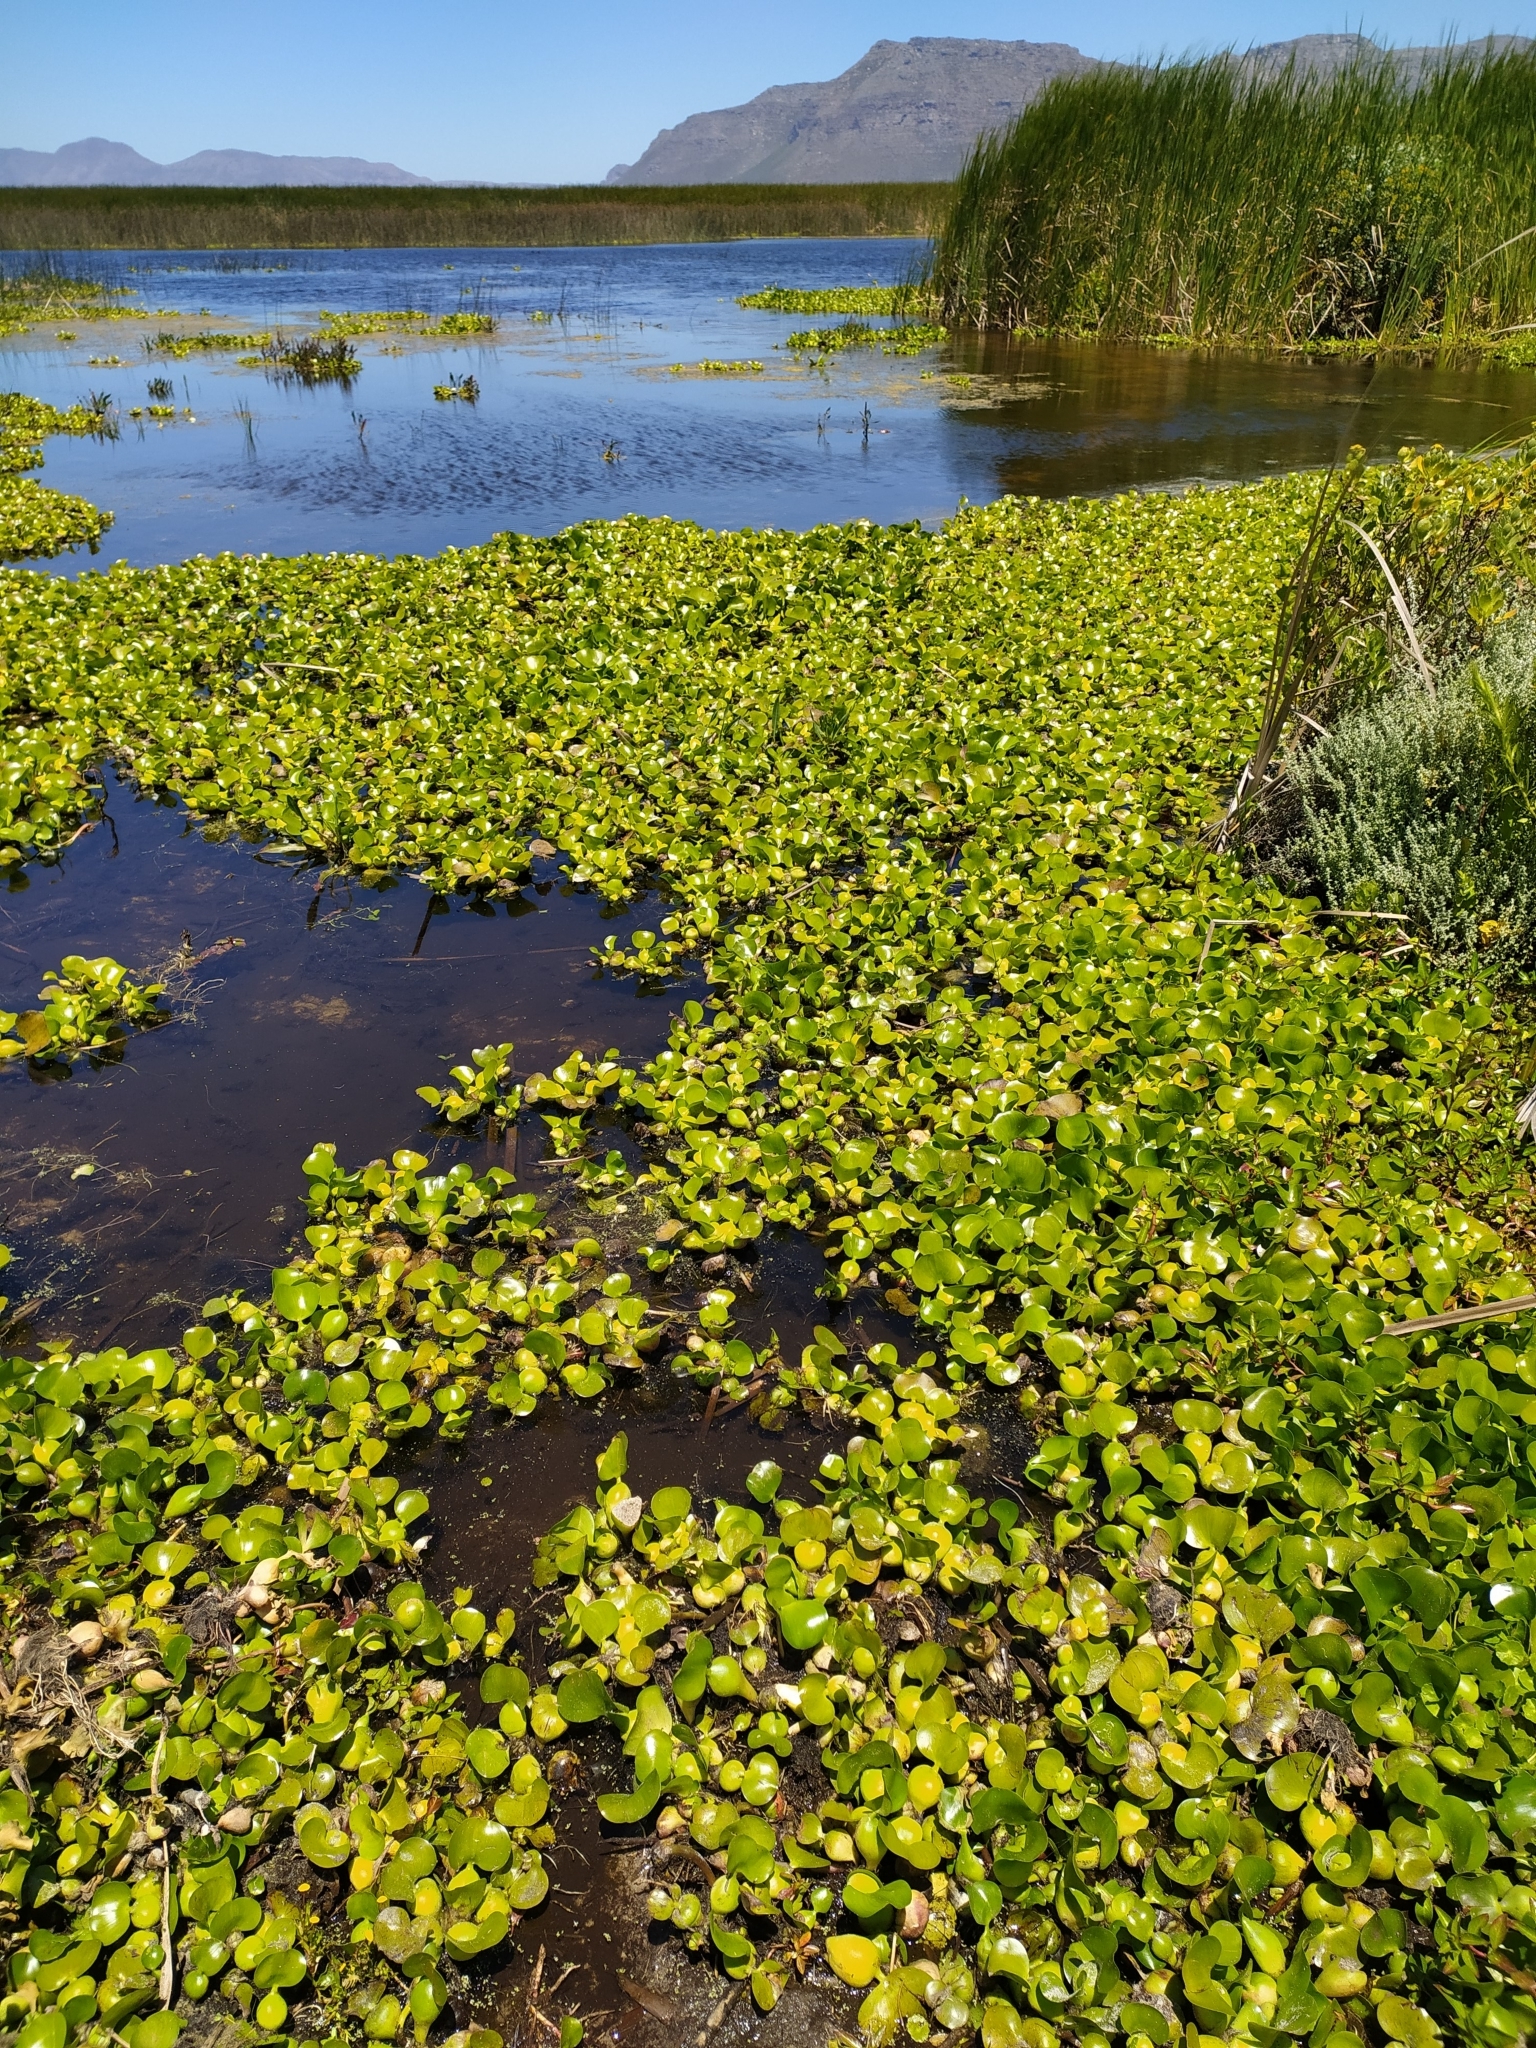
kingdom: Plantae
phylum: Tracheophyta
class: Liliopsida
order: Commelinales
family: Pontederiaceae
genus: Pontederia
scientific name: Pontederia crassipes
